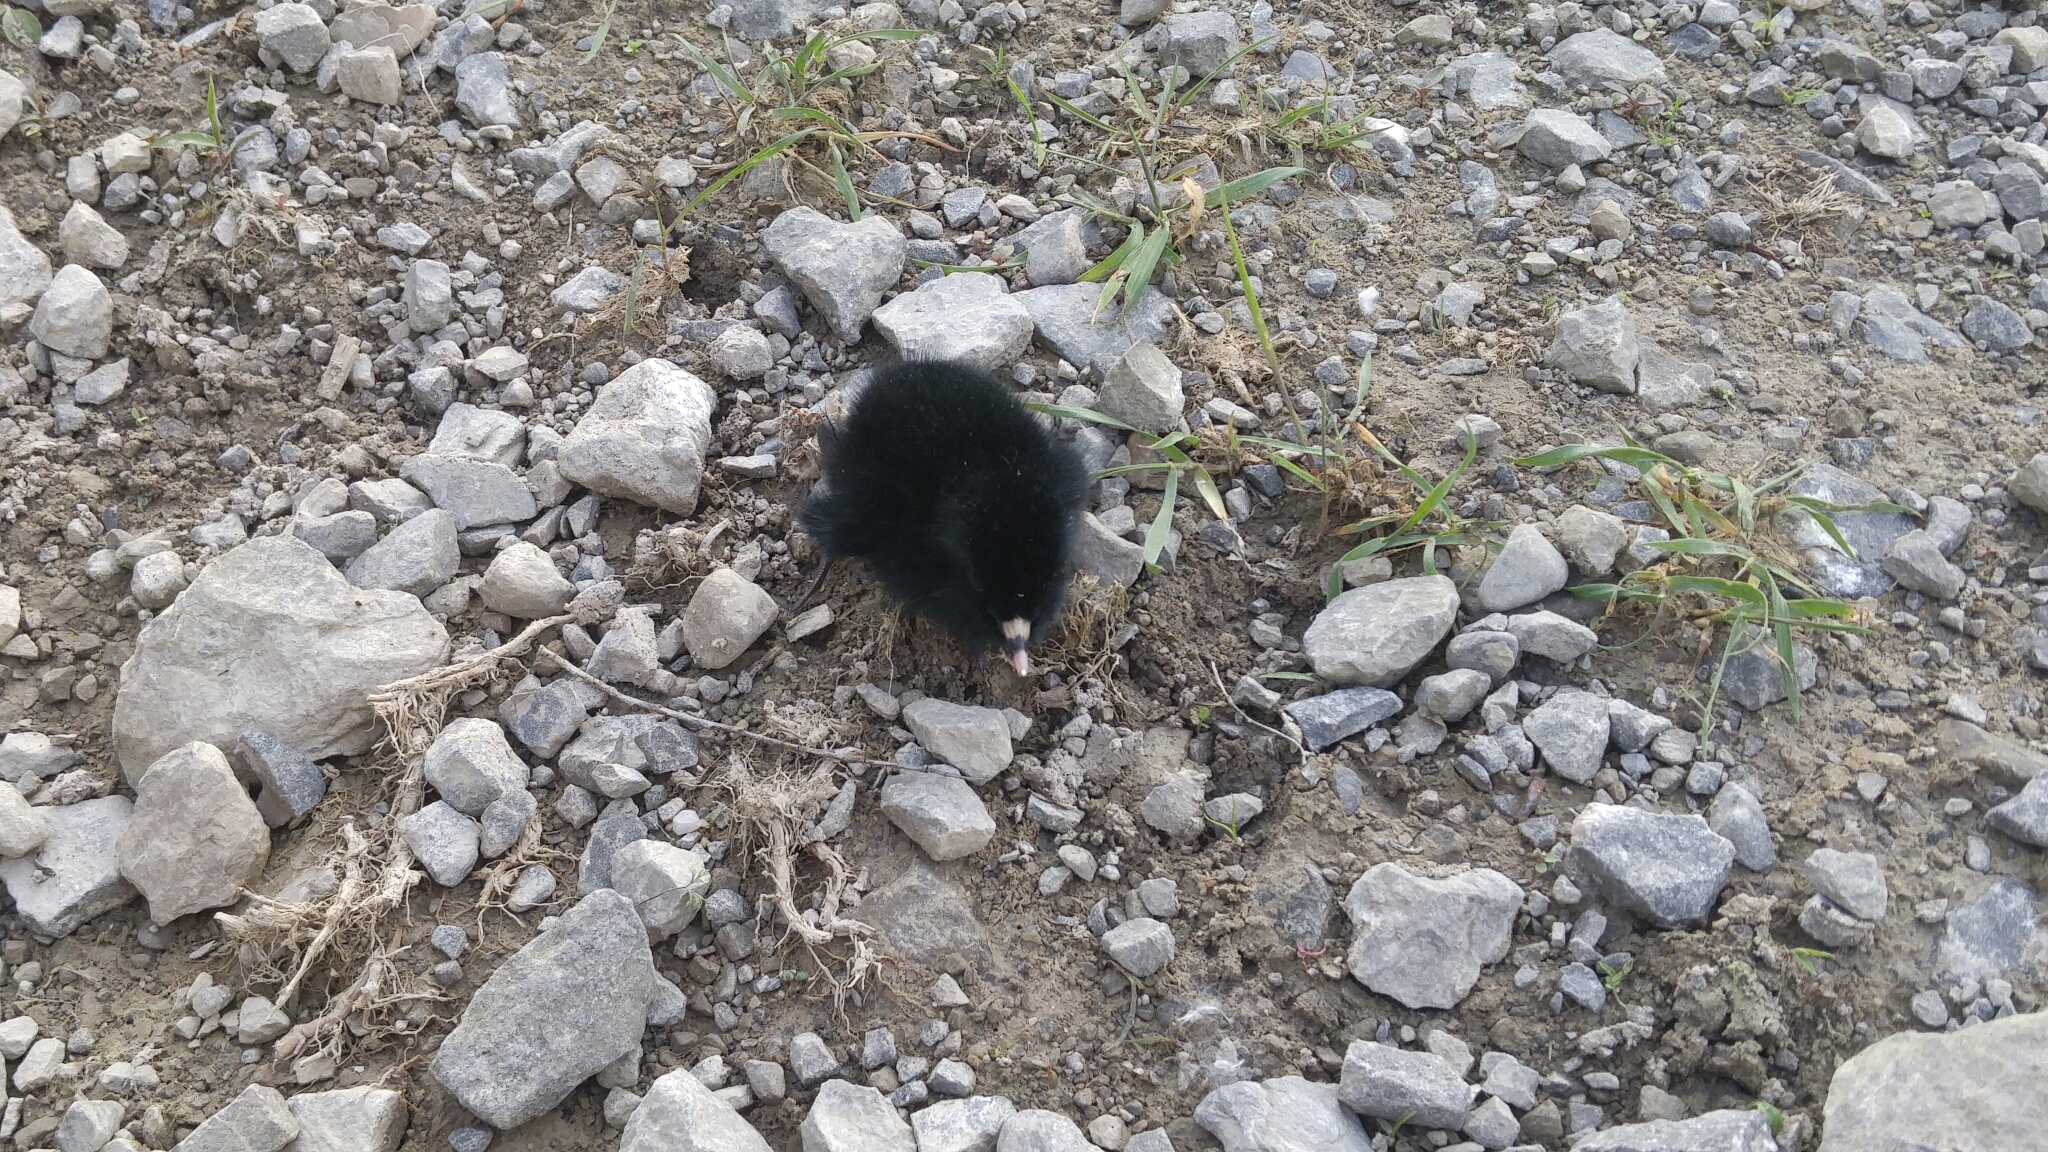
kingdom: Animalia
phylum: Chordata
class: Aves
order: Gruiformes
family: Rallidae
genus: Rallus
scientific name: Rallus limicola
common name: Virginia rail
